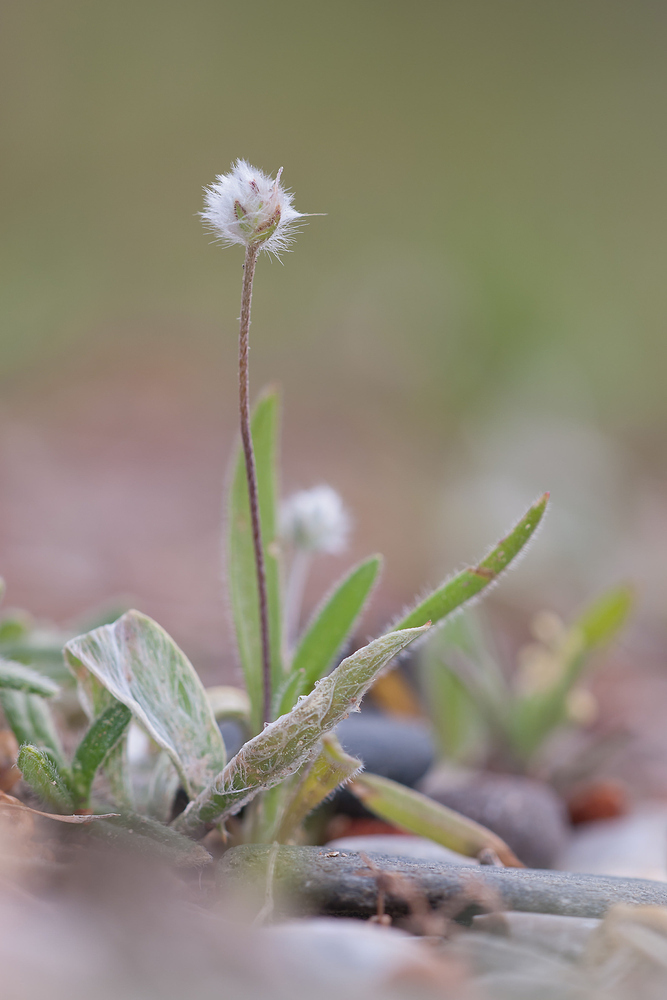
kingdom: Plantae
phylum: Tracheophyta
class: Magnoliopsida
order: Lamiales
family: Plantaginaceae
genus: Plantago
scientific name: Plantago lagopus
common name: Hare-foot plantain
